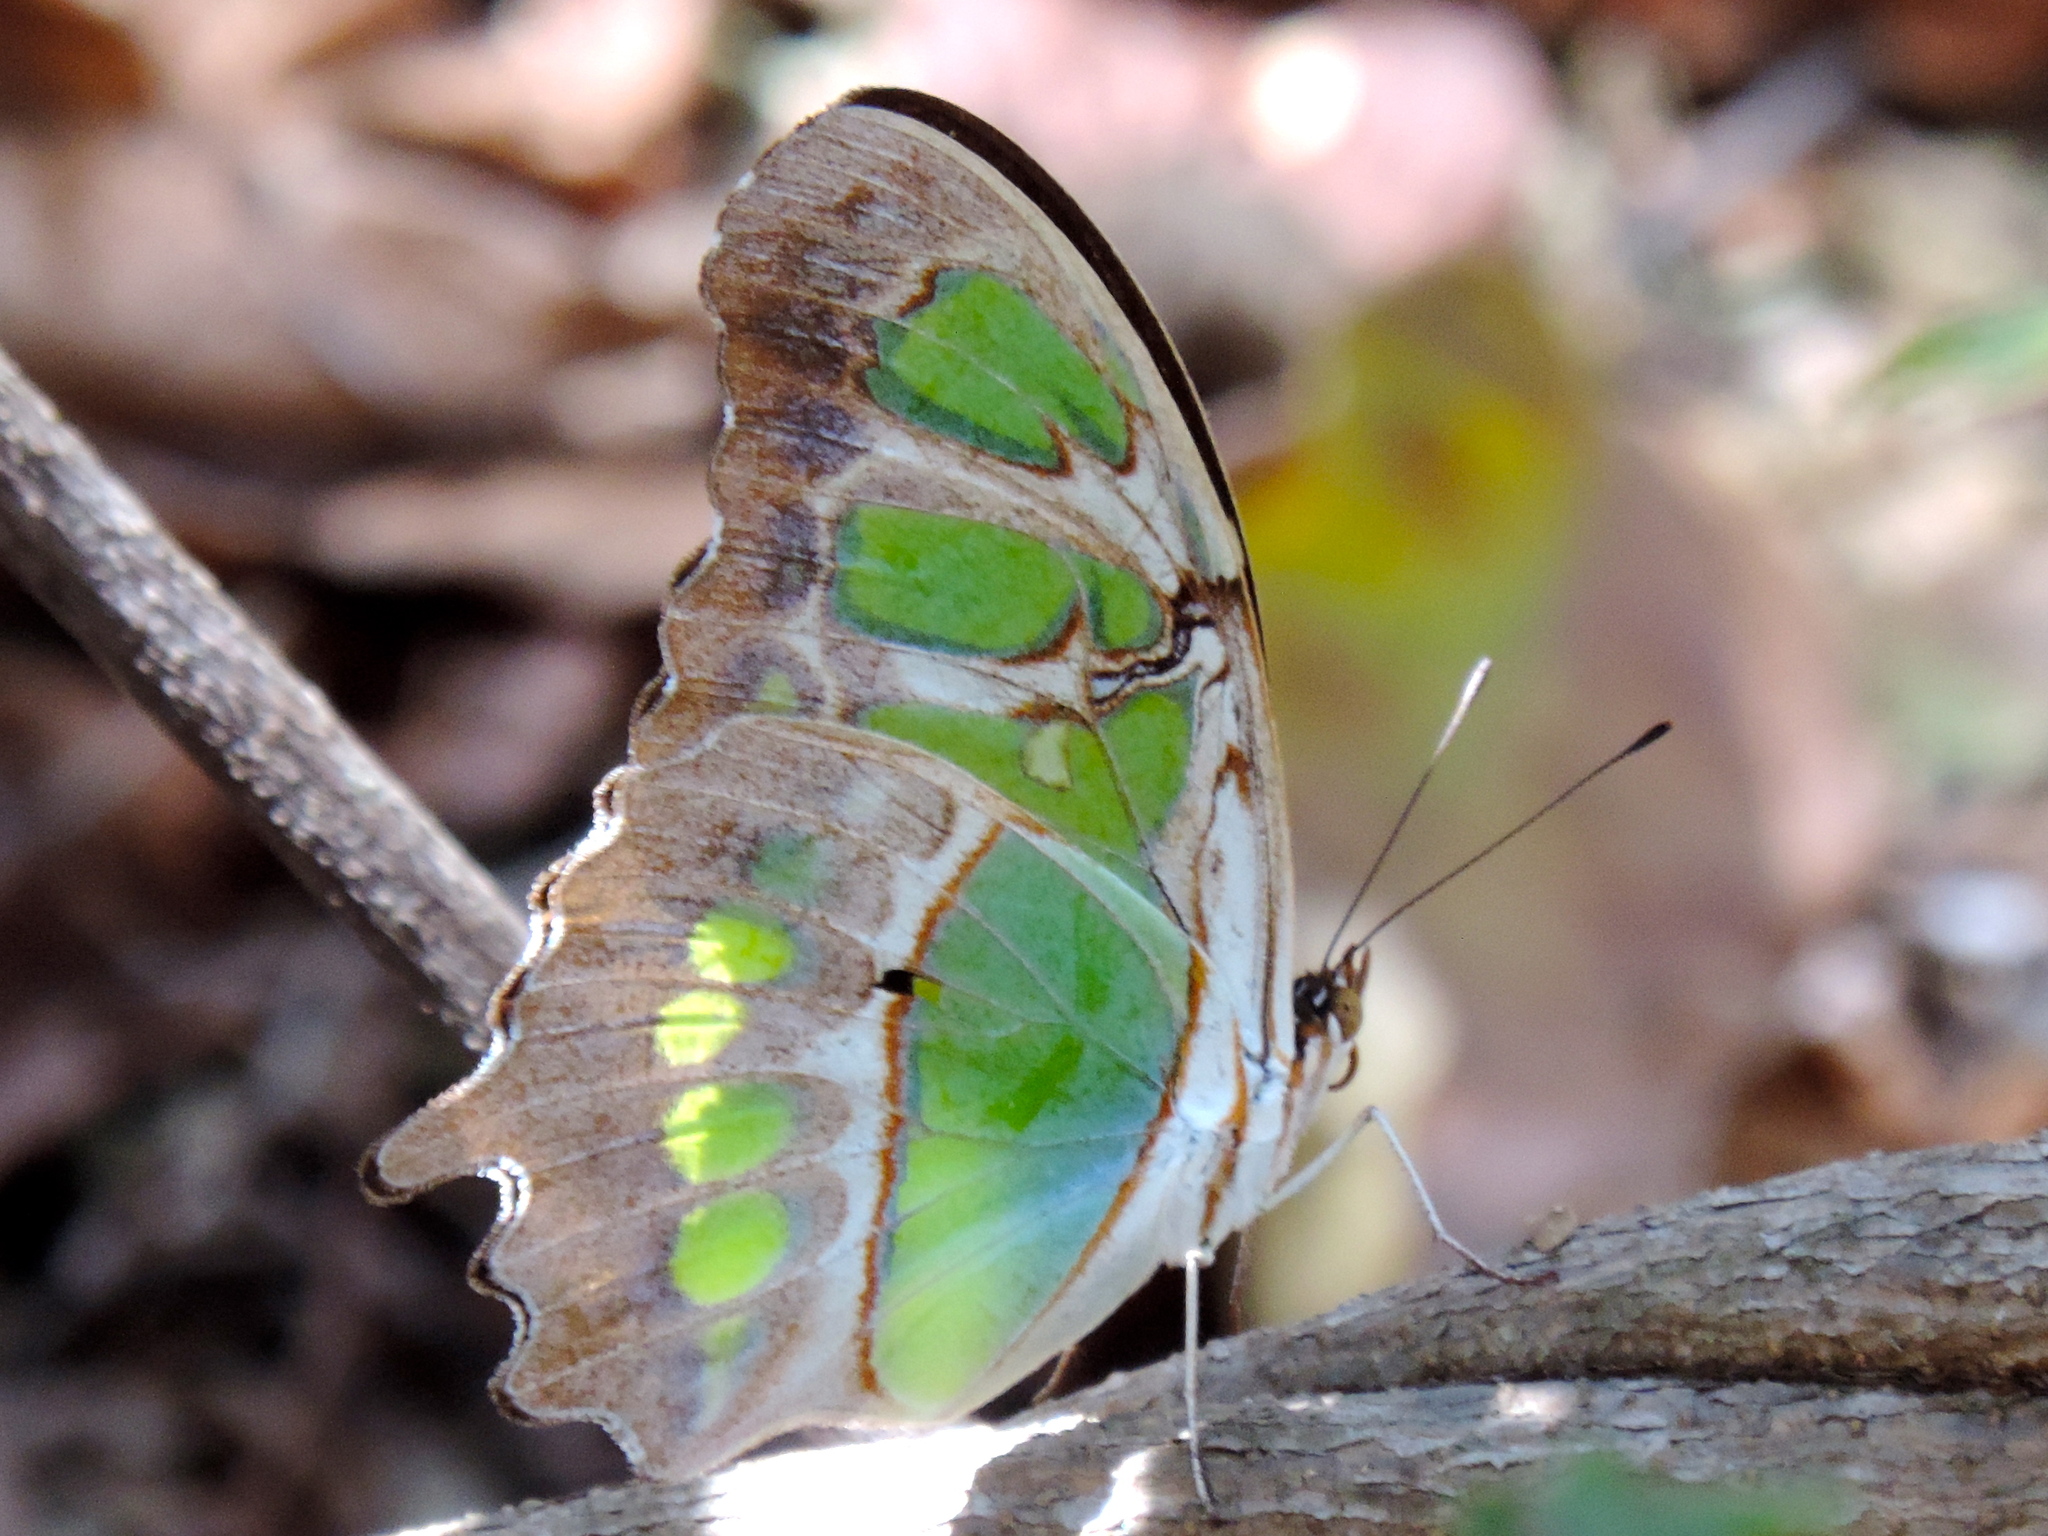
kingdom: Animalia
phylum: Arthropoda
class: Insecta
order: Lepidoptera
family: Nymphalidae
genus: Siproeta
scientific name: Siproeta stelenes
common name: Malachite
